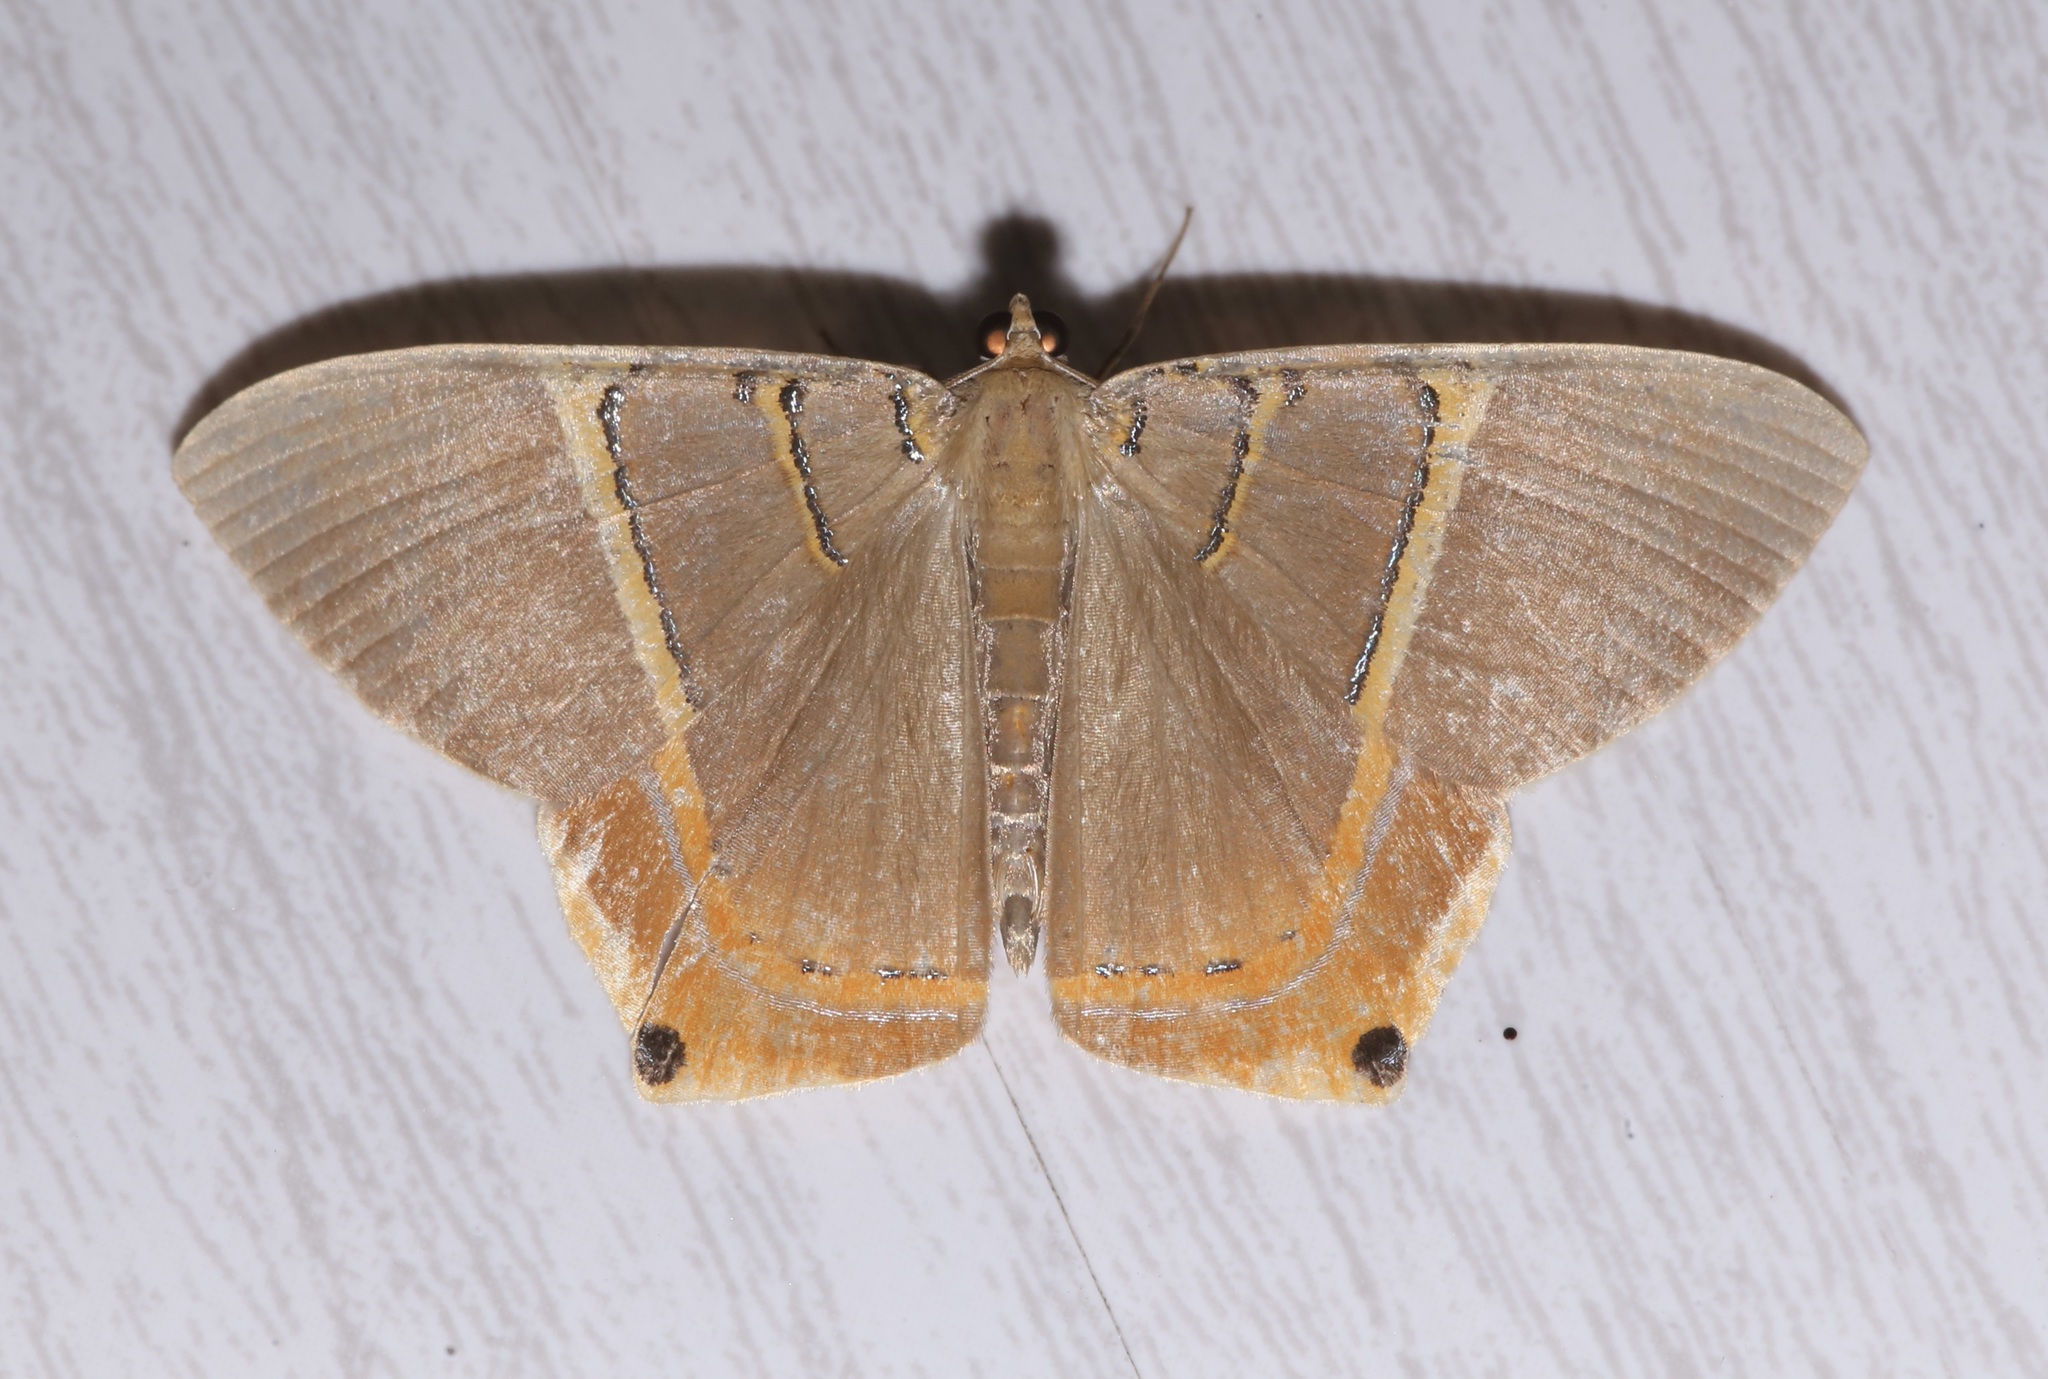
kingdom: Animalia
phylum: Arthropoda
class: Insecta
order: Lepidoptera
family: Geometridae
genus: Phrygionis
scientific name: Phrygionis polita
